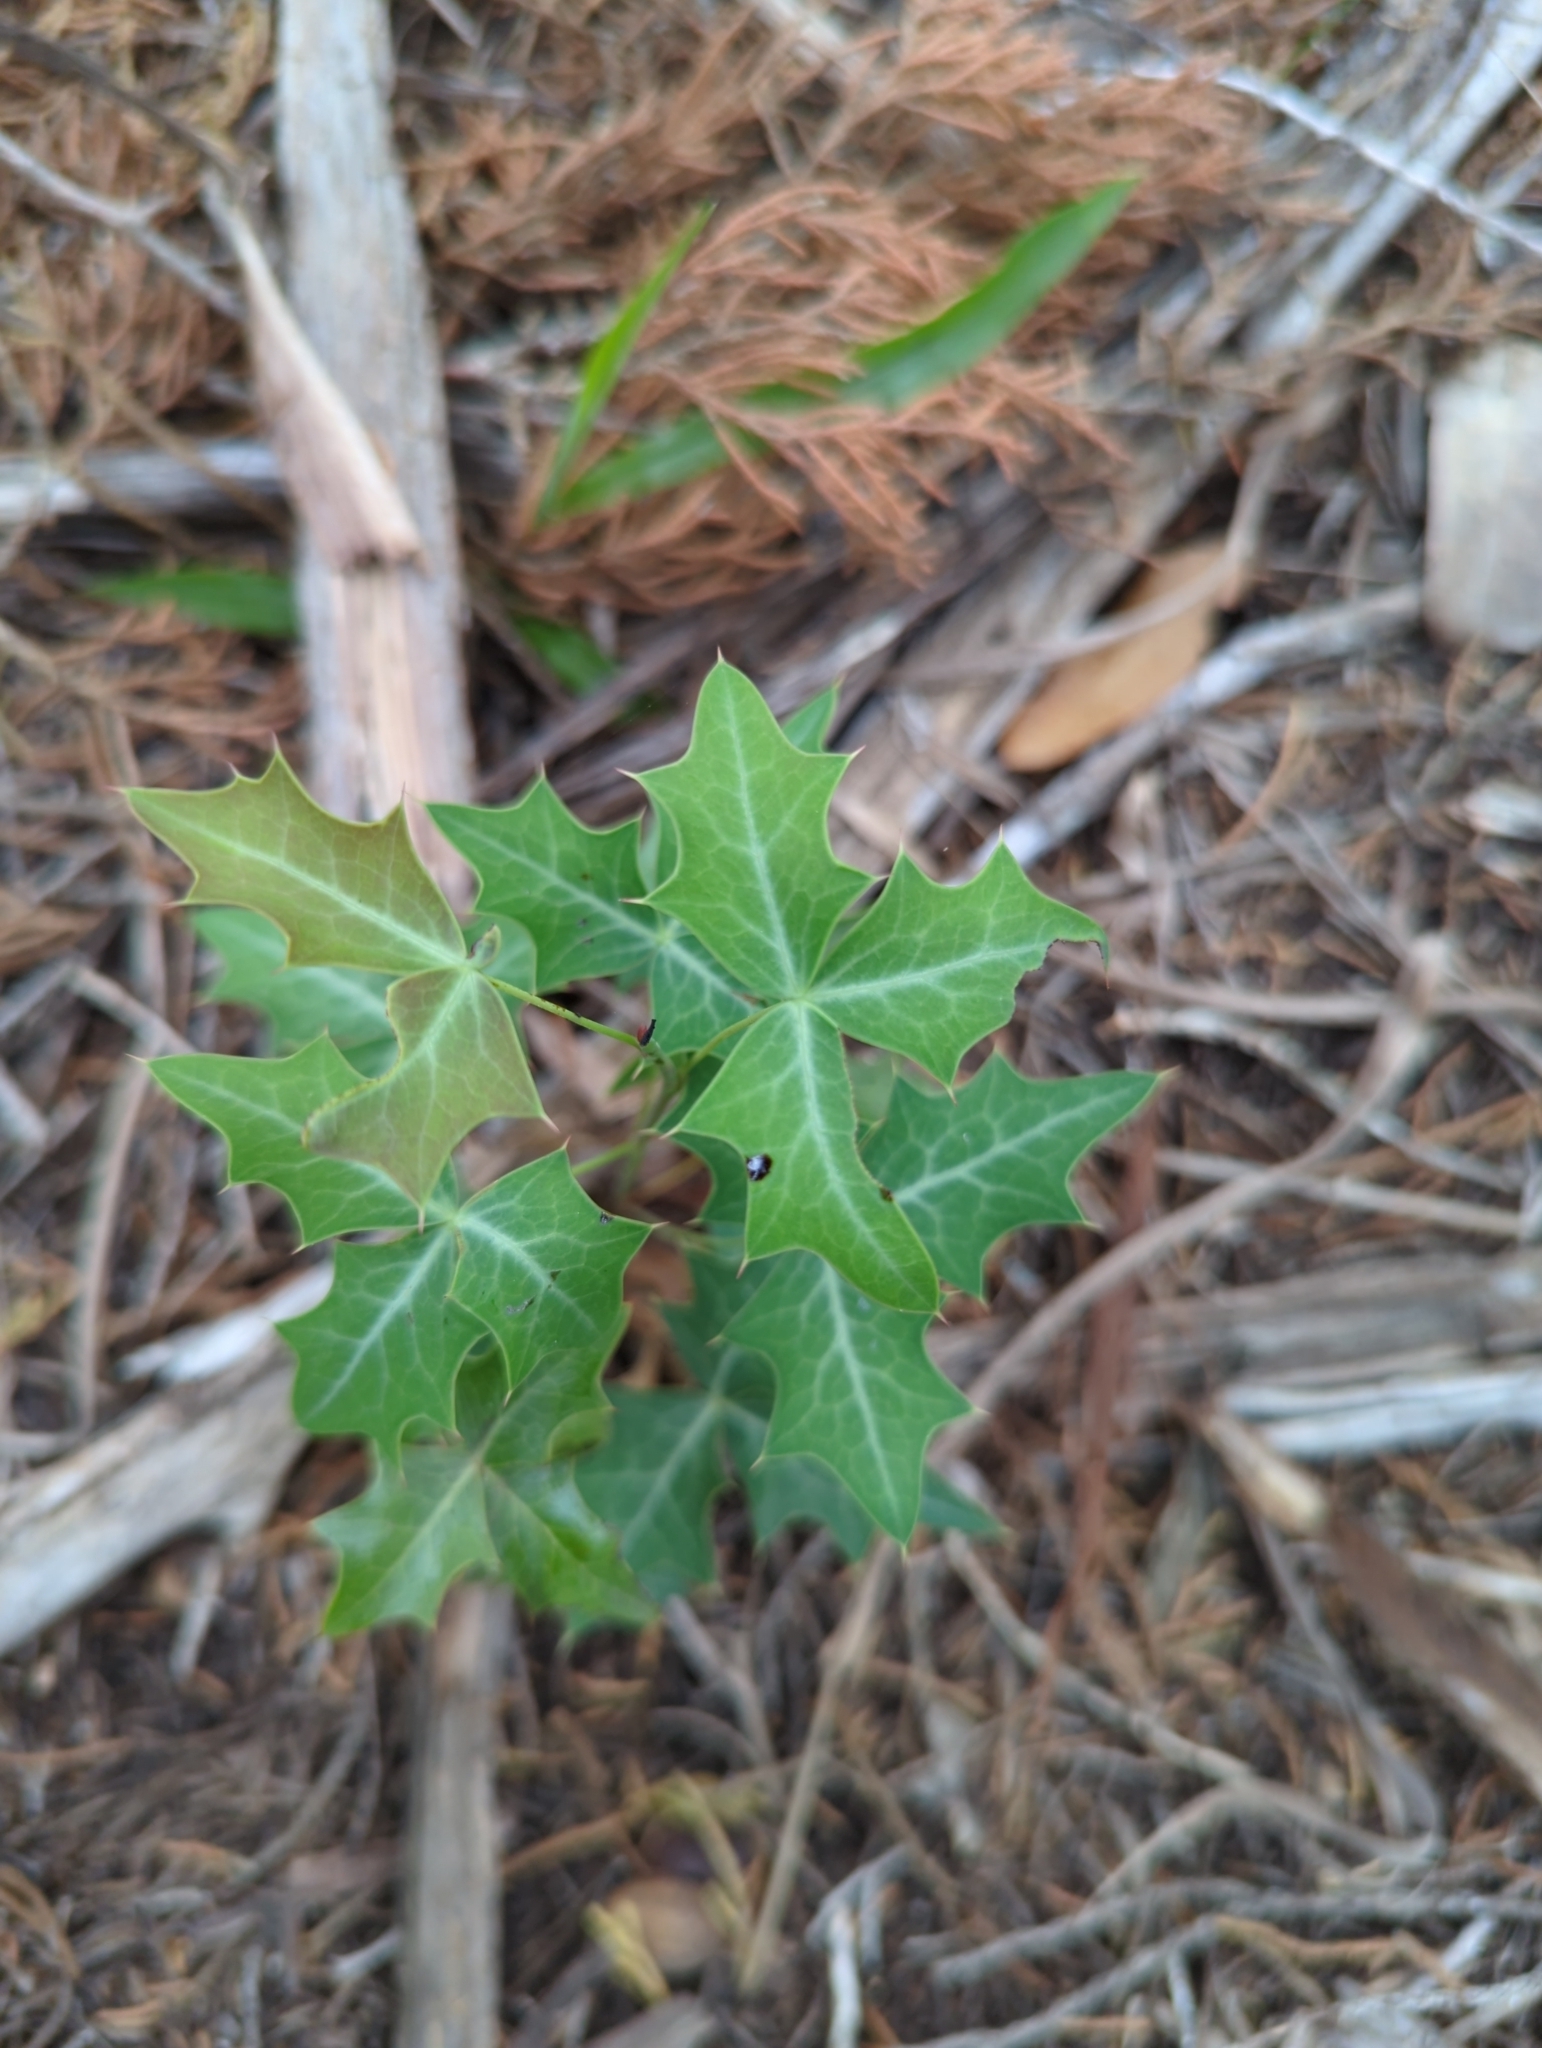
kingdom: Plantae
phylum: Tracheophyta
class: Magnoliopsida
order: Ranunculales
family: Berberidaceae
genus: Alloberberis
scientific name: Alloberberis trifoliolata
